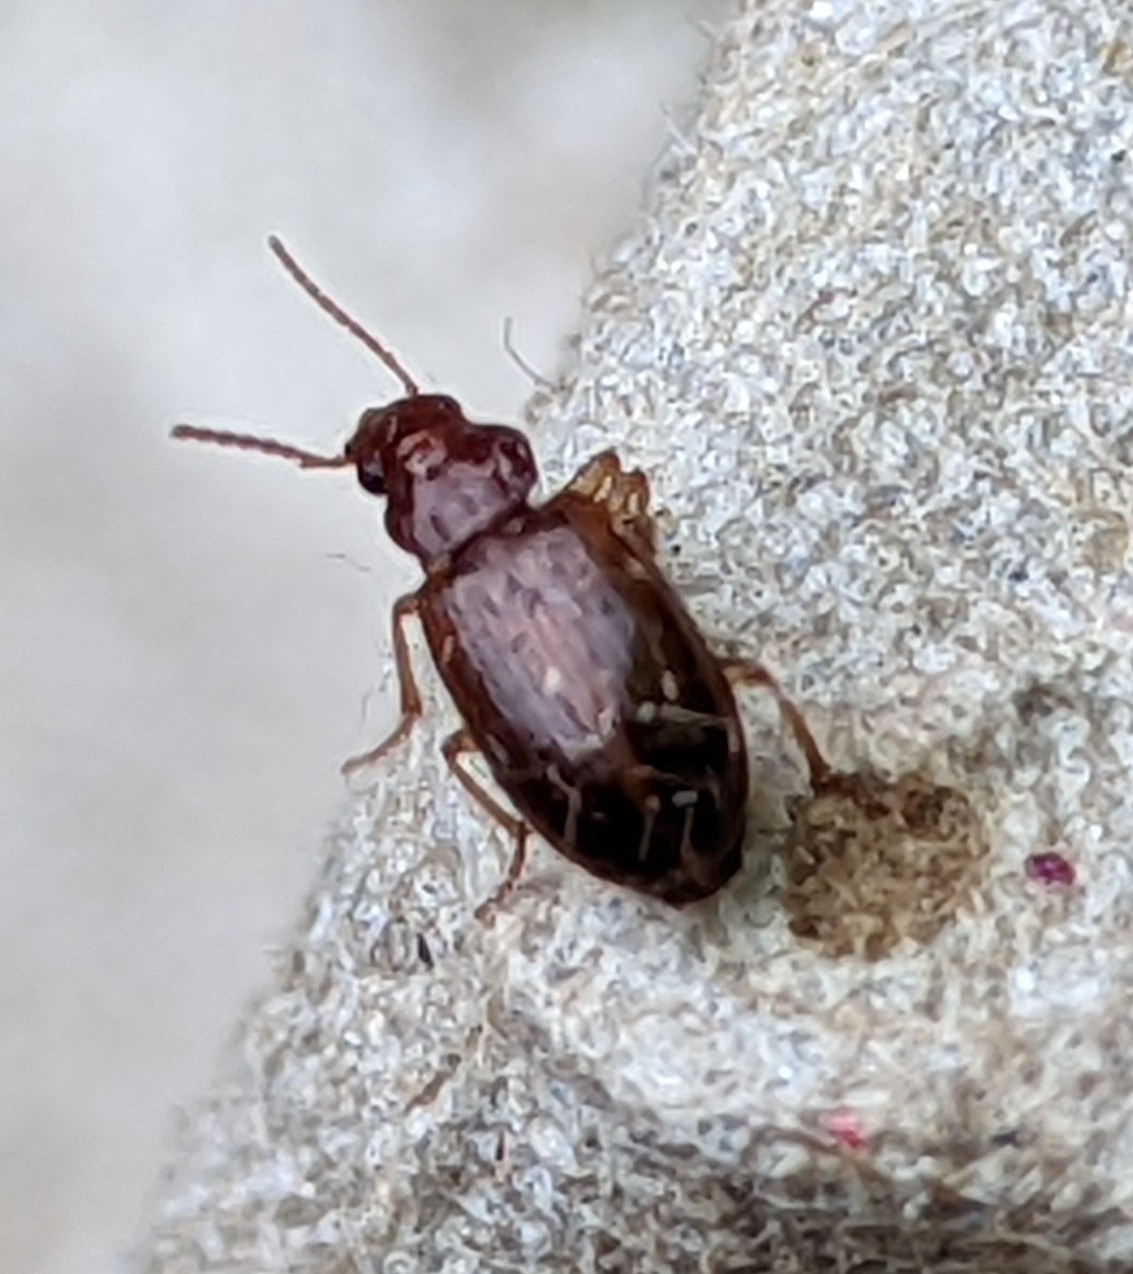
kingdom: Animalia
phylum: Arthropoda
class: Insecta
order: Coleoptera
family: Carabidae
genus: Bradycellus
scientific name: Bradycellus
